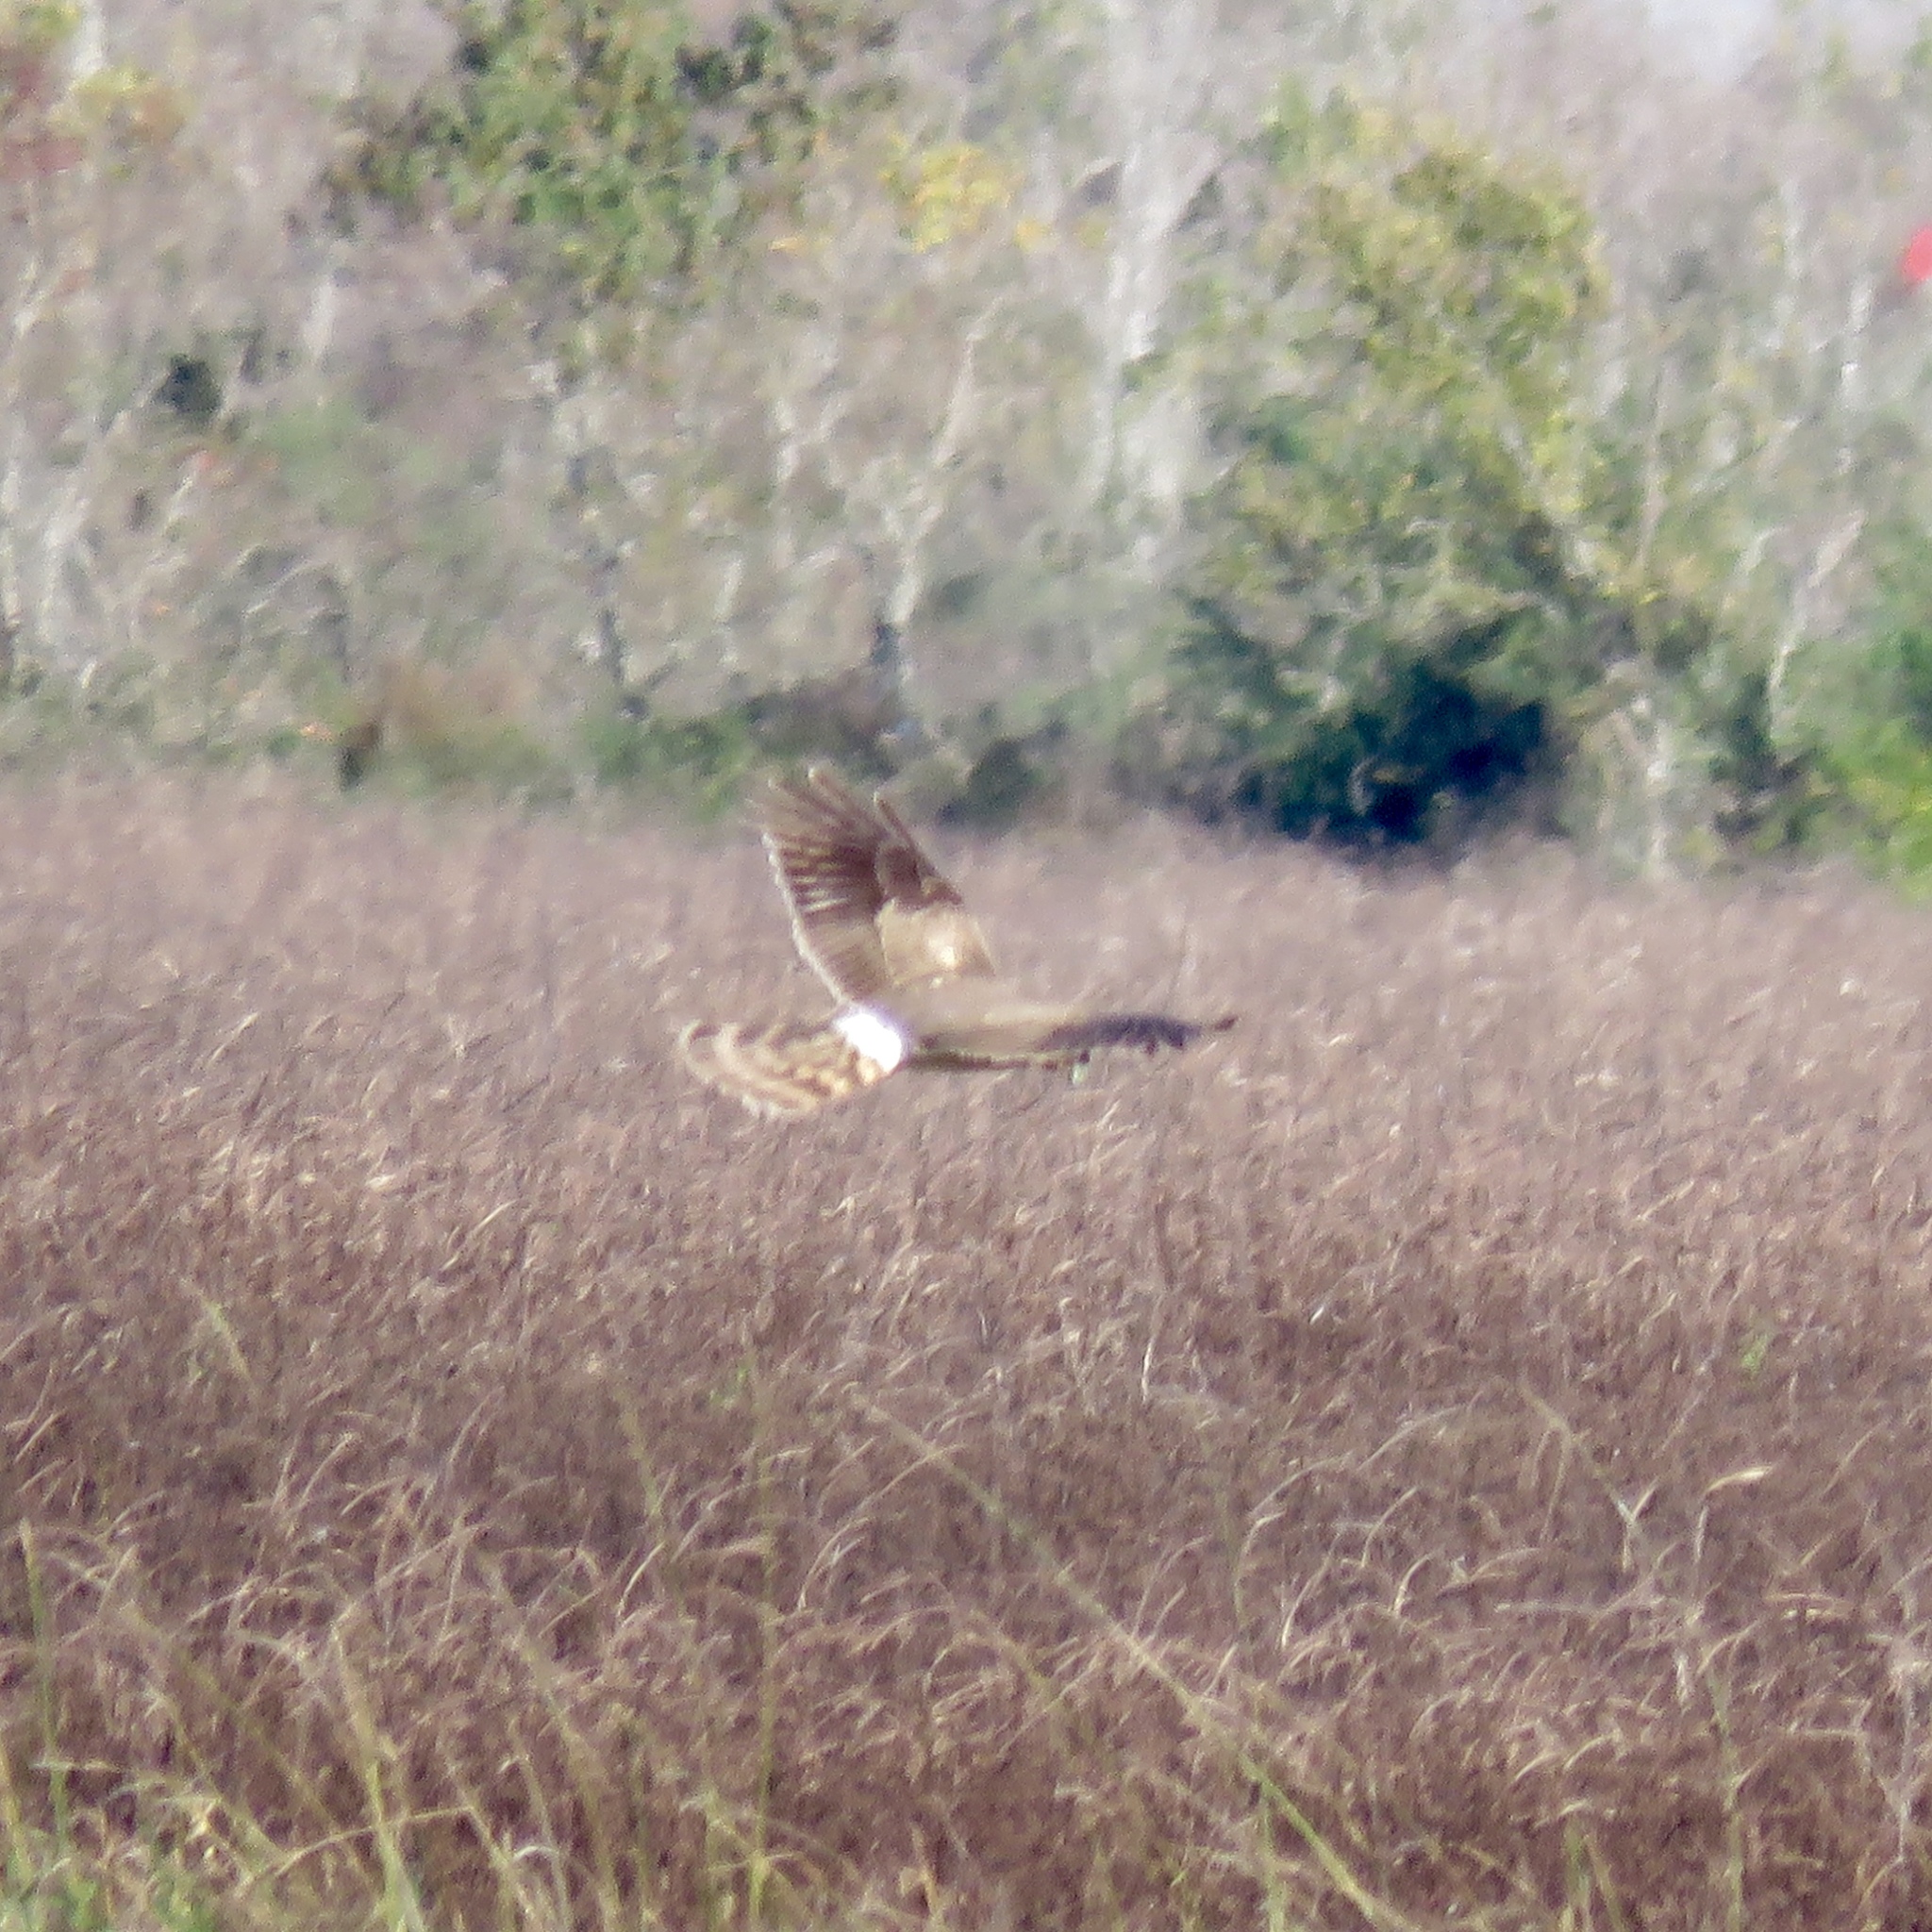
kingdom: Animalia
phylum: Chordata
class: Aves
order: Accipitriformes
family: Accipitridae
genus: Circus
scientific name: Circus cyaneus
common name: Hen harrier
